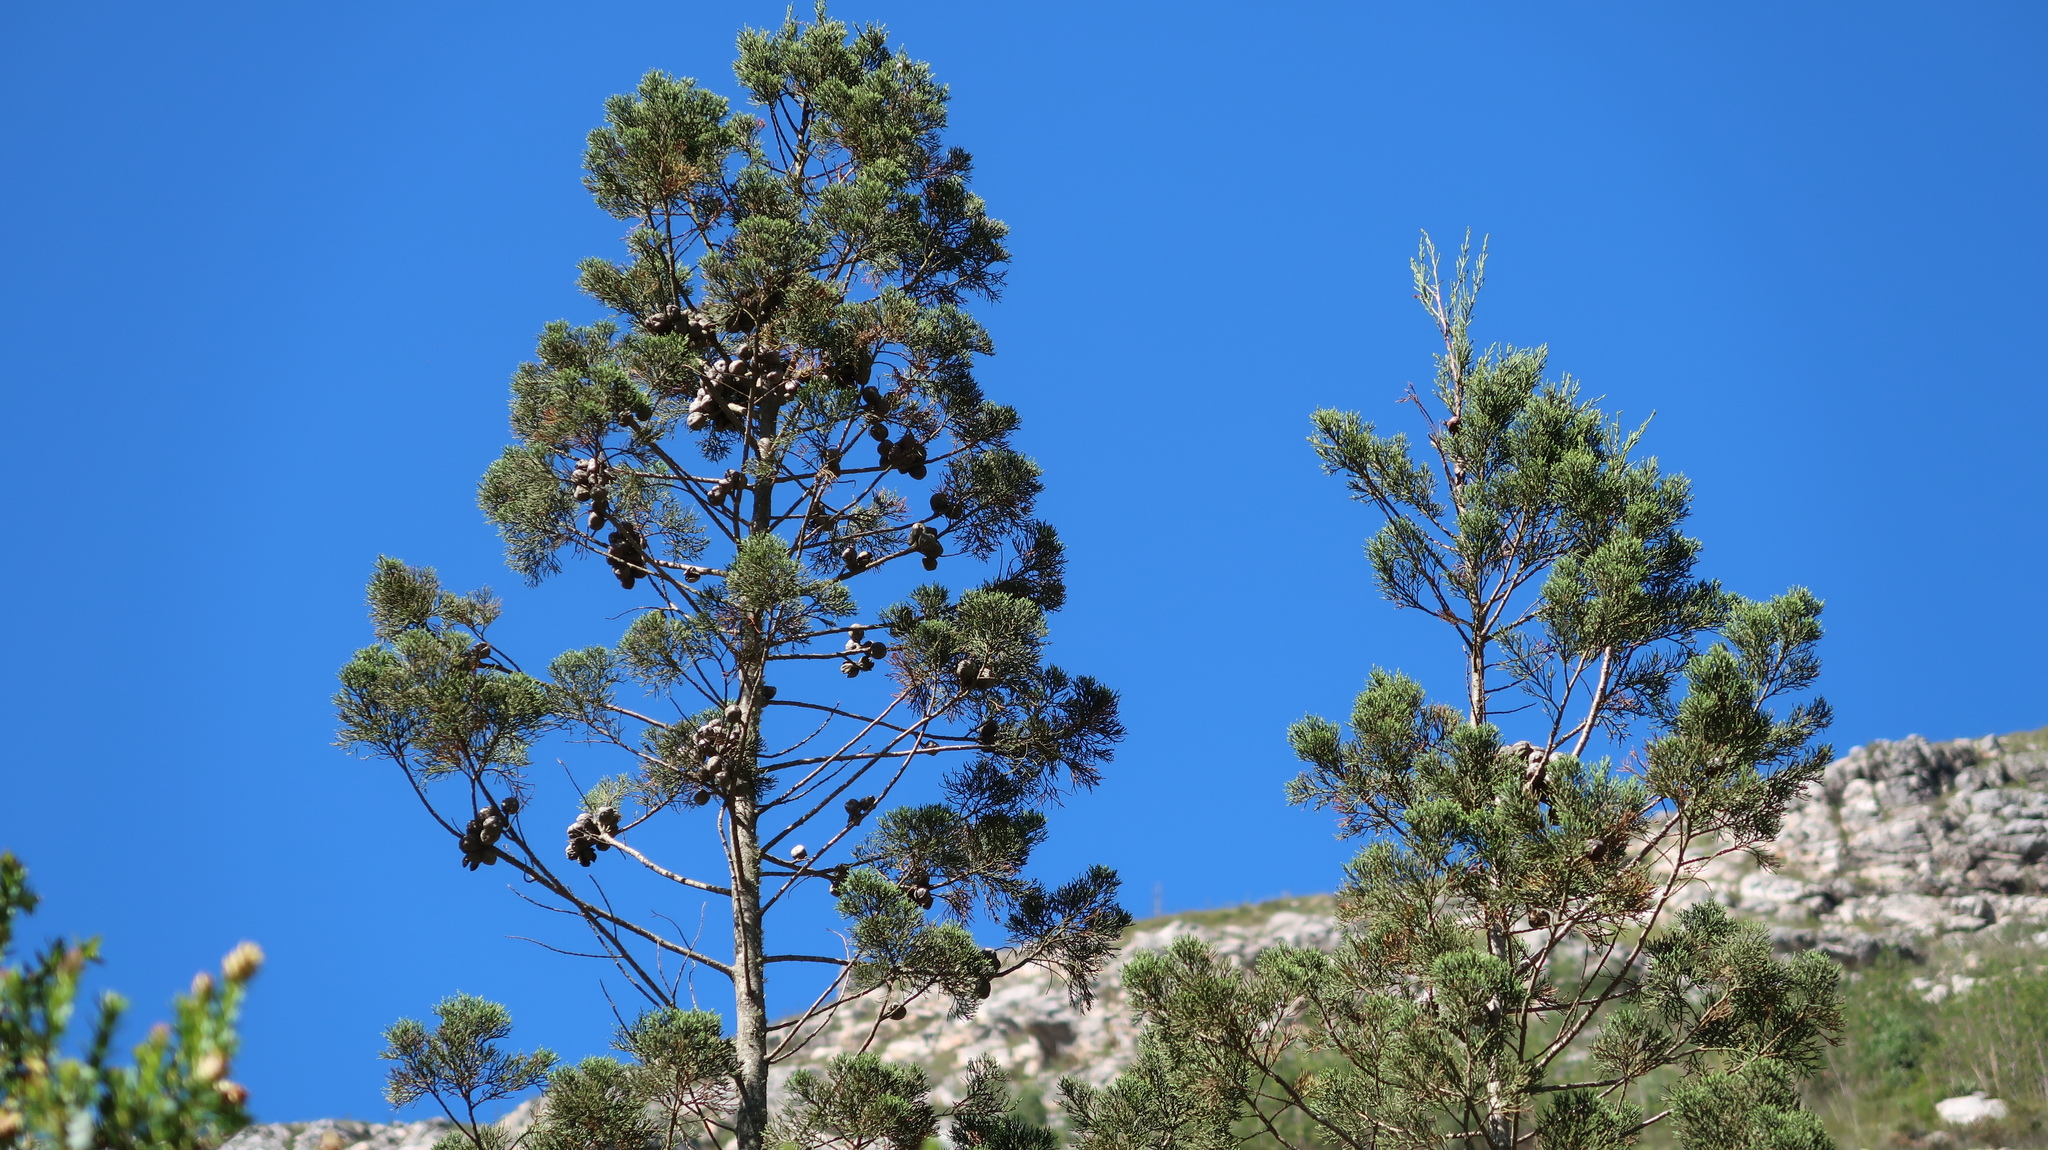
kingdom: Plantae
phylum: Tracheophyta
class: Pinopsida
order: Pinales
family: Cupressaceae
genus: Widdringtonia
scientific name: Widdringtonia nodiflora
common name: Cape cypress
